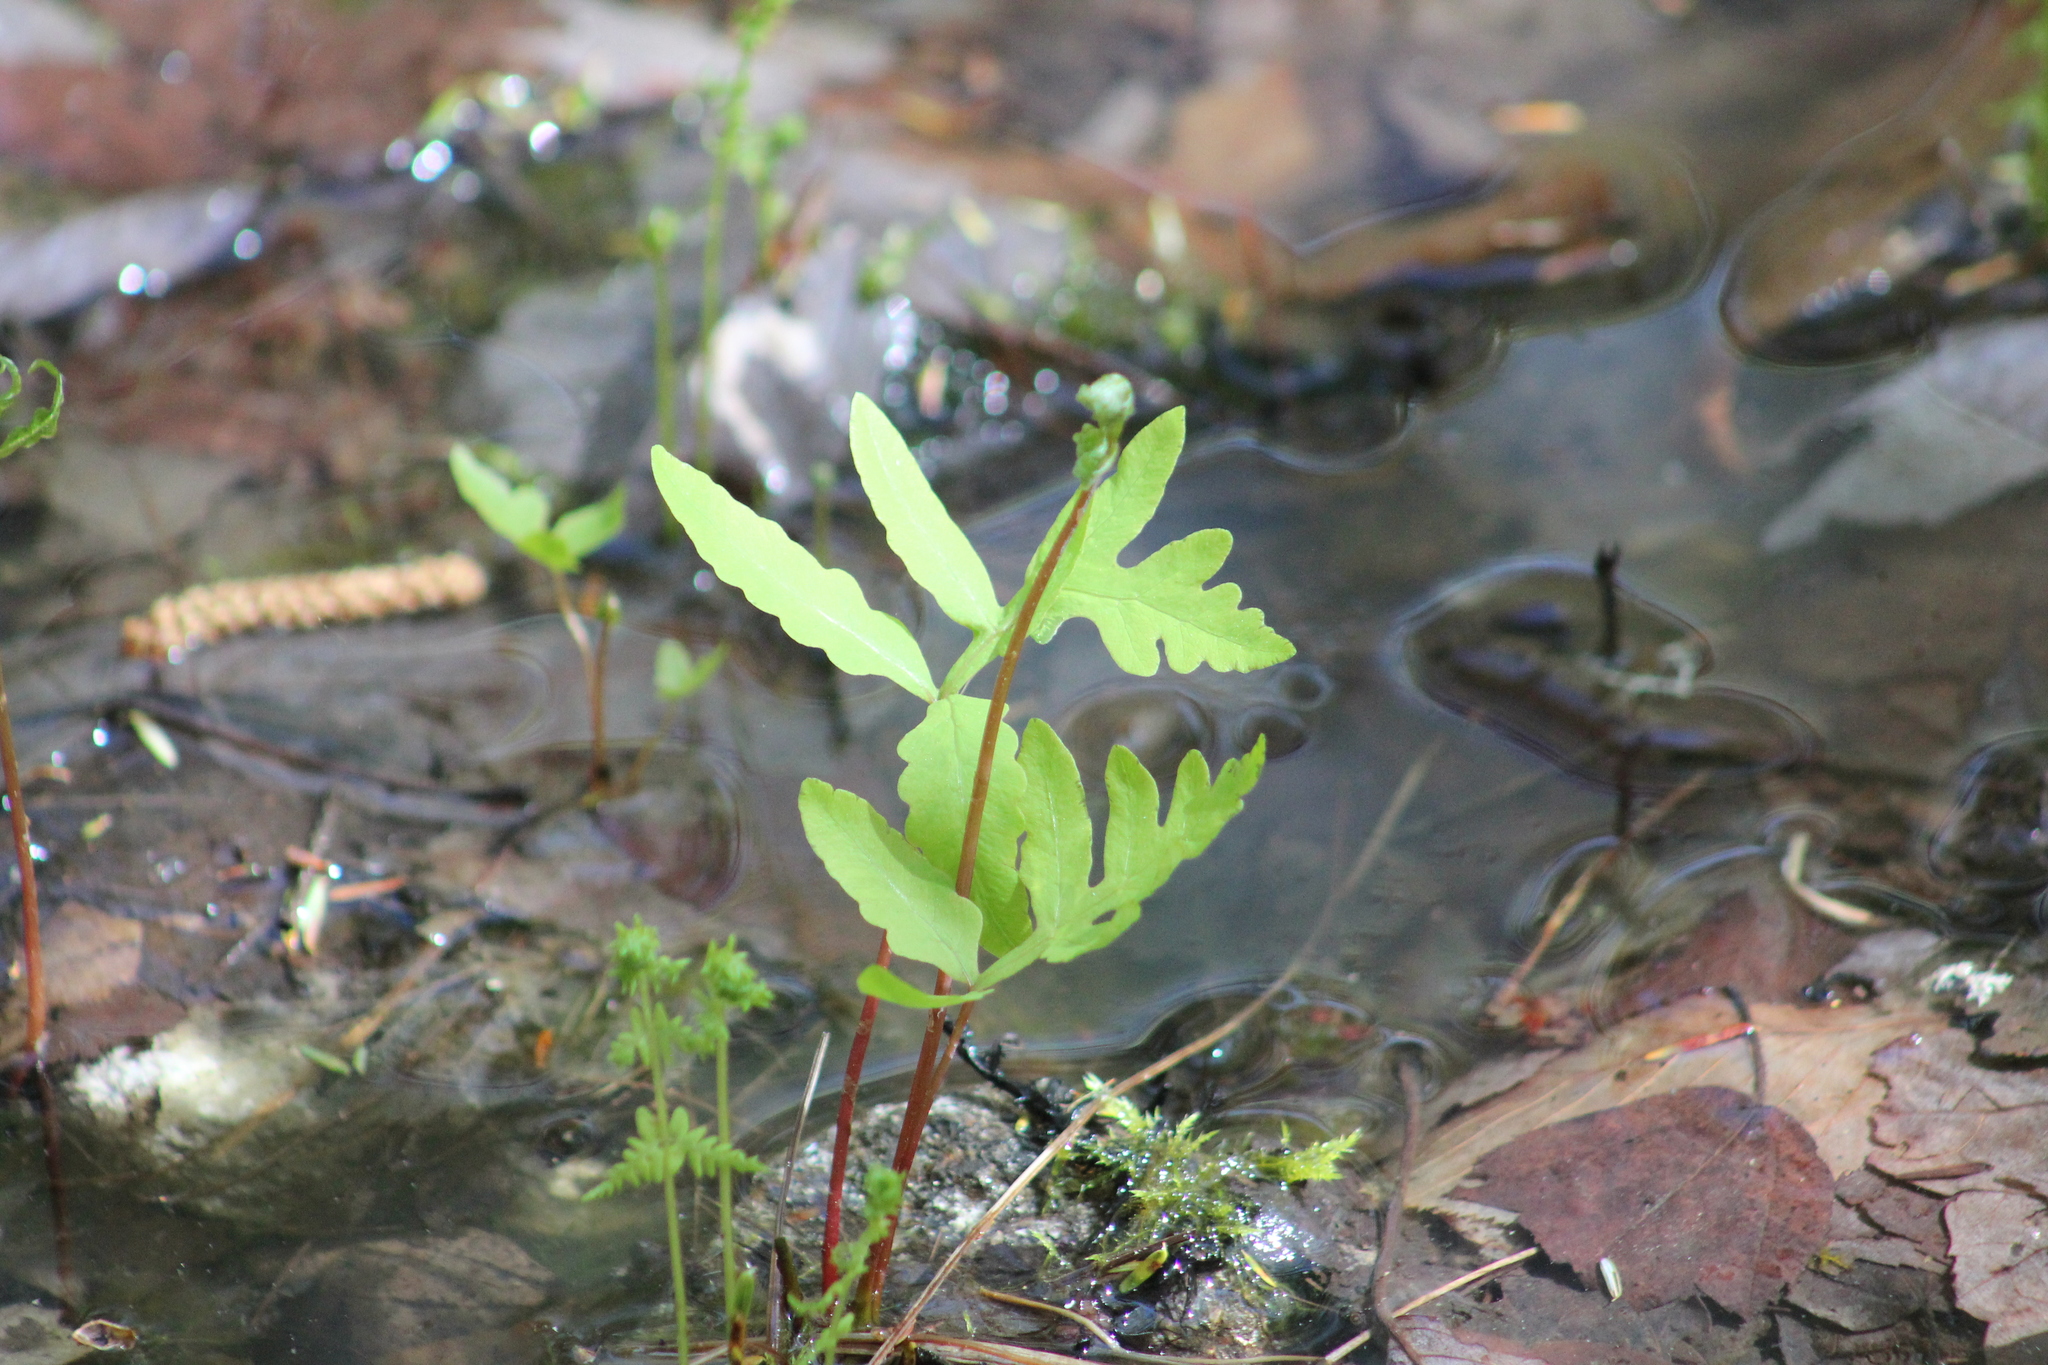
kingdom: Plantae
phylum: Tracheophyta
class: Polypodiopsida
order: Polypodiales
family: Onocleaceae
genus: Onoclea
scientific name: Onoclea sensibilis
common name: Sensitive fern
